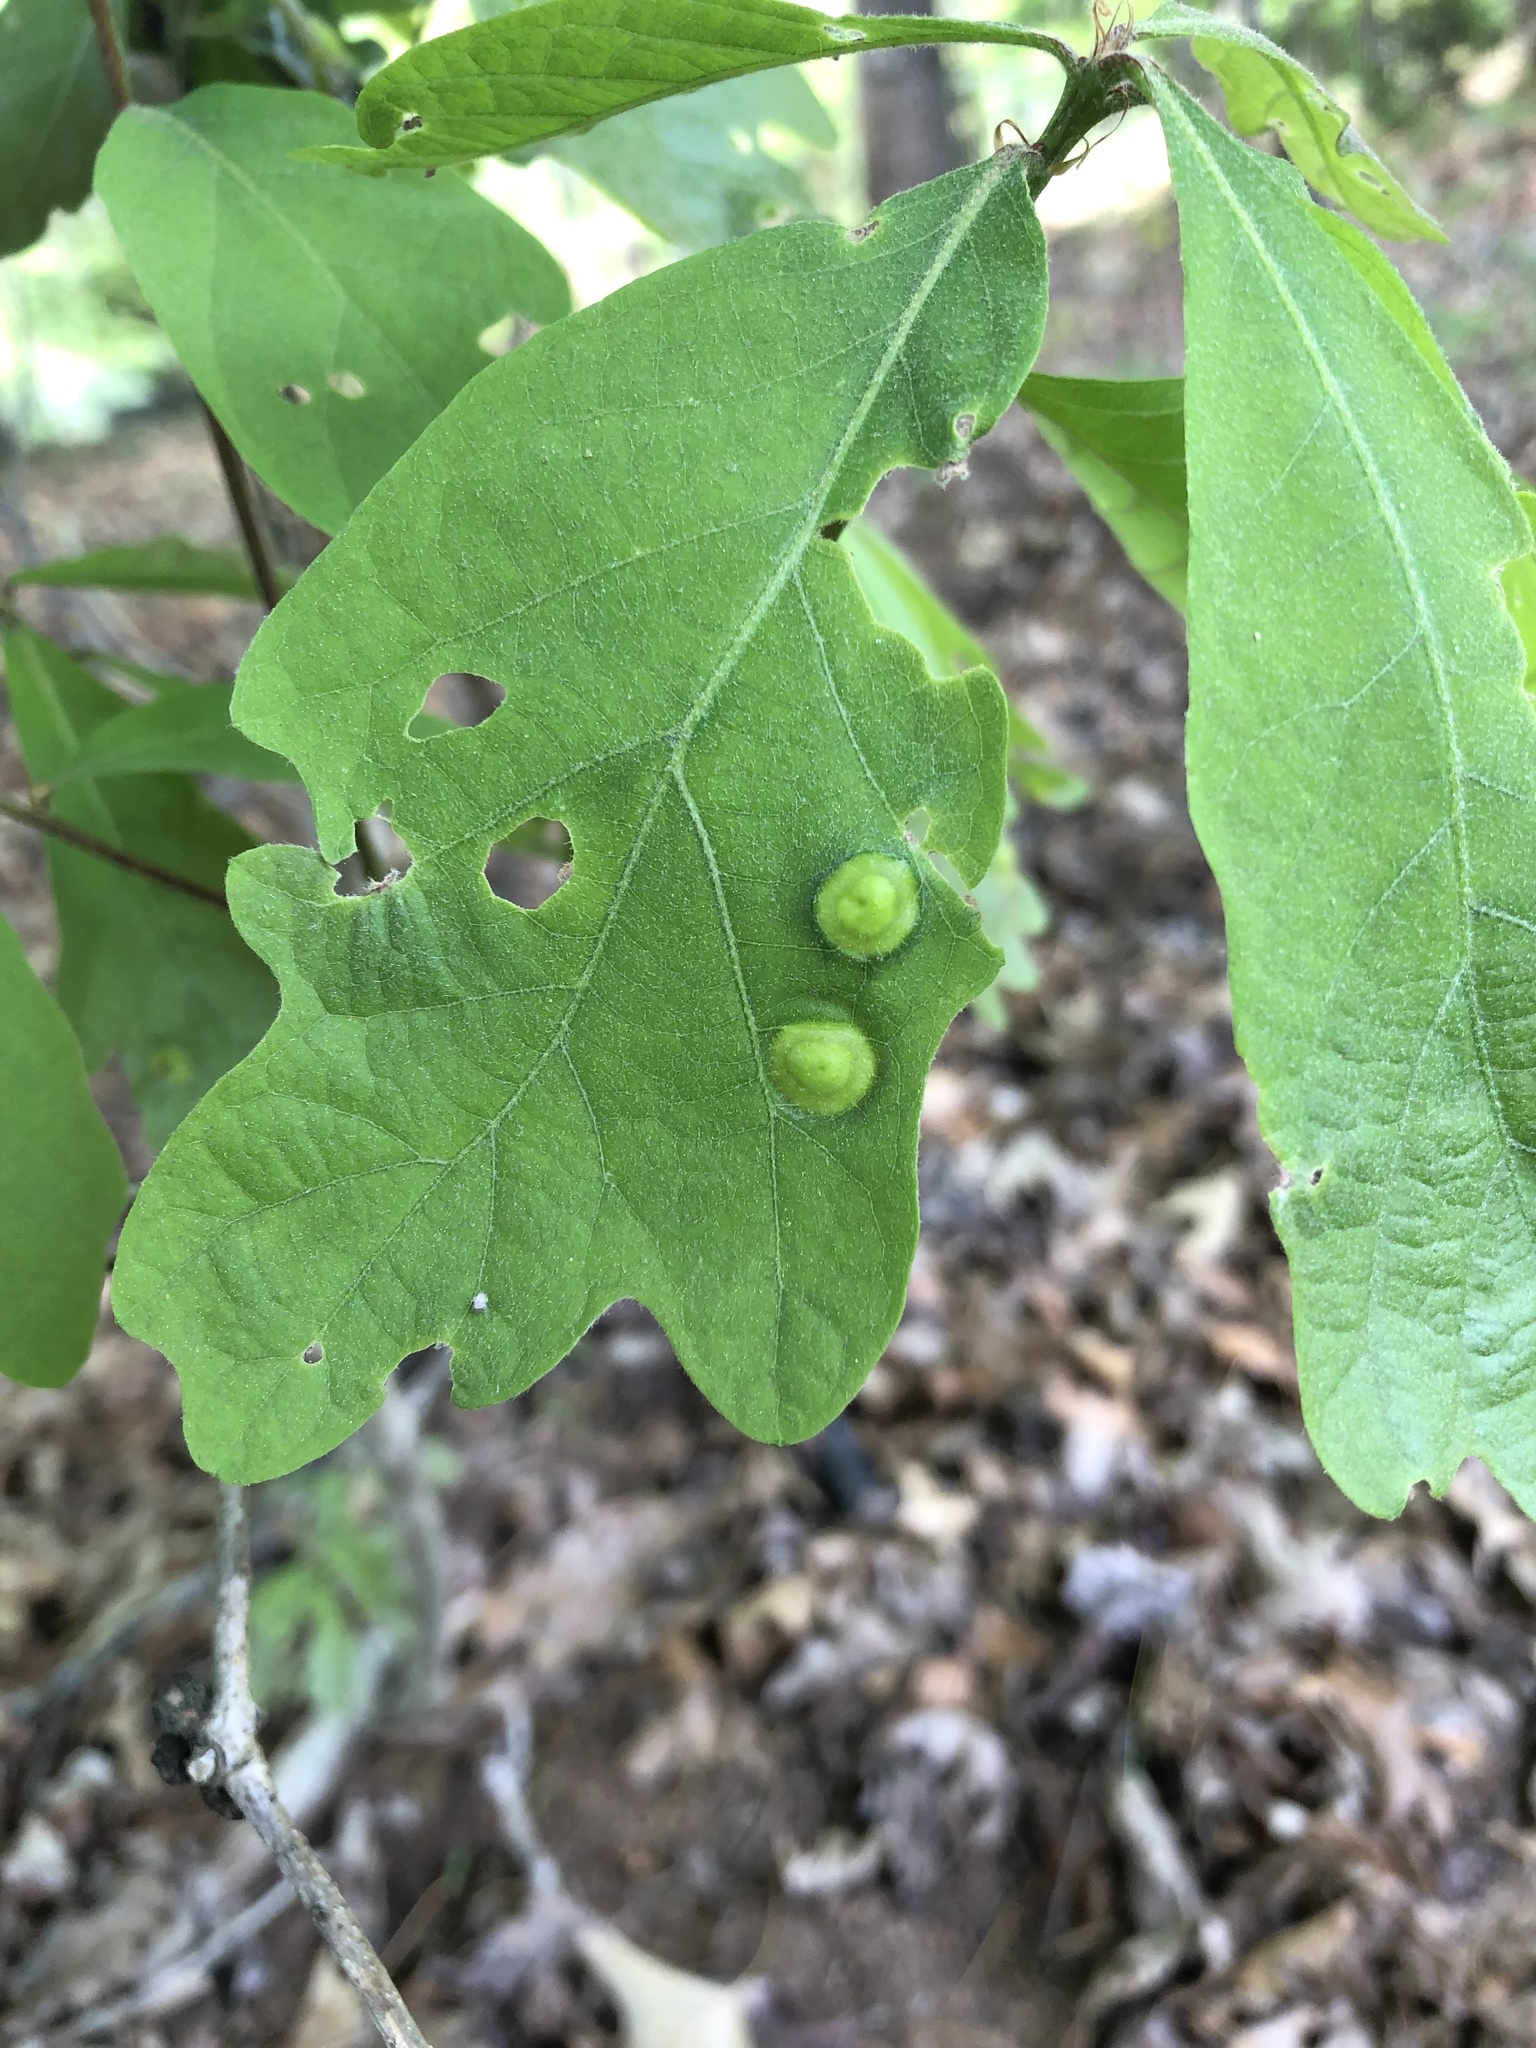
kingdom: Animalia
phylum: Arthropoda
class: Insecta
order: Hymenoptera
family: Cynipidae
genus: Callirhytis
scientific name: Callirhytis
